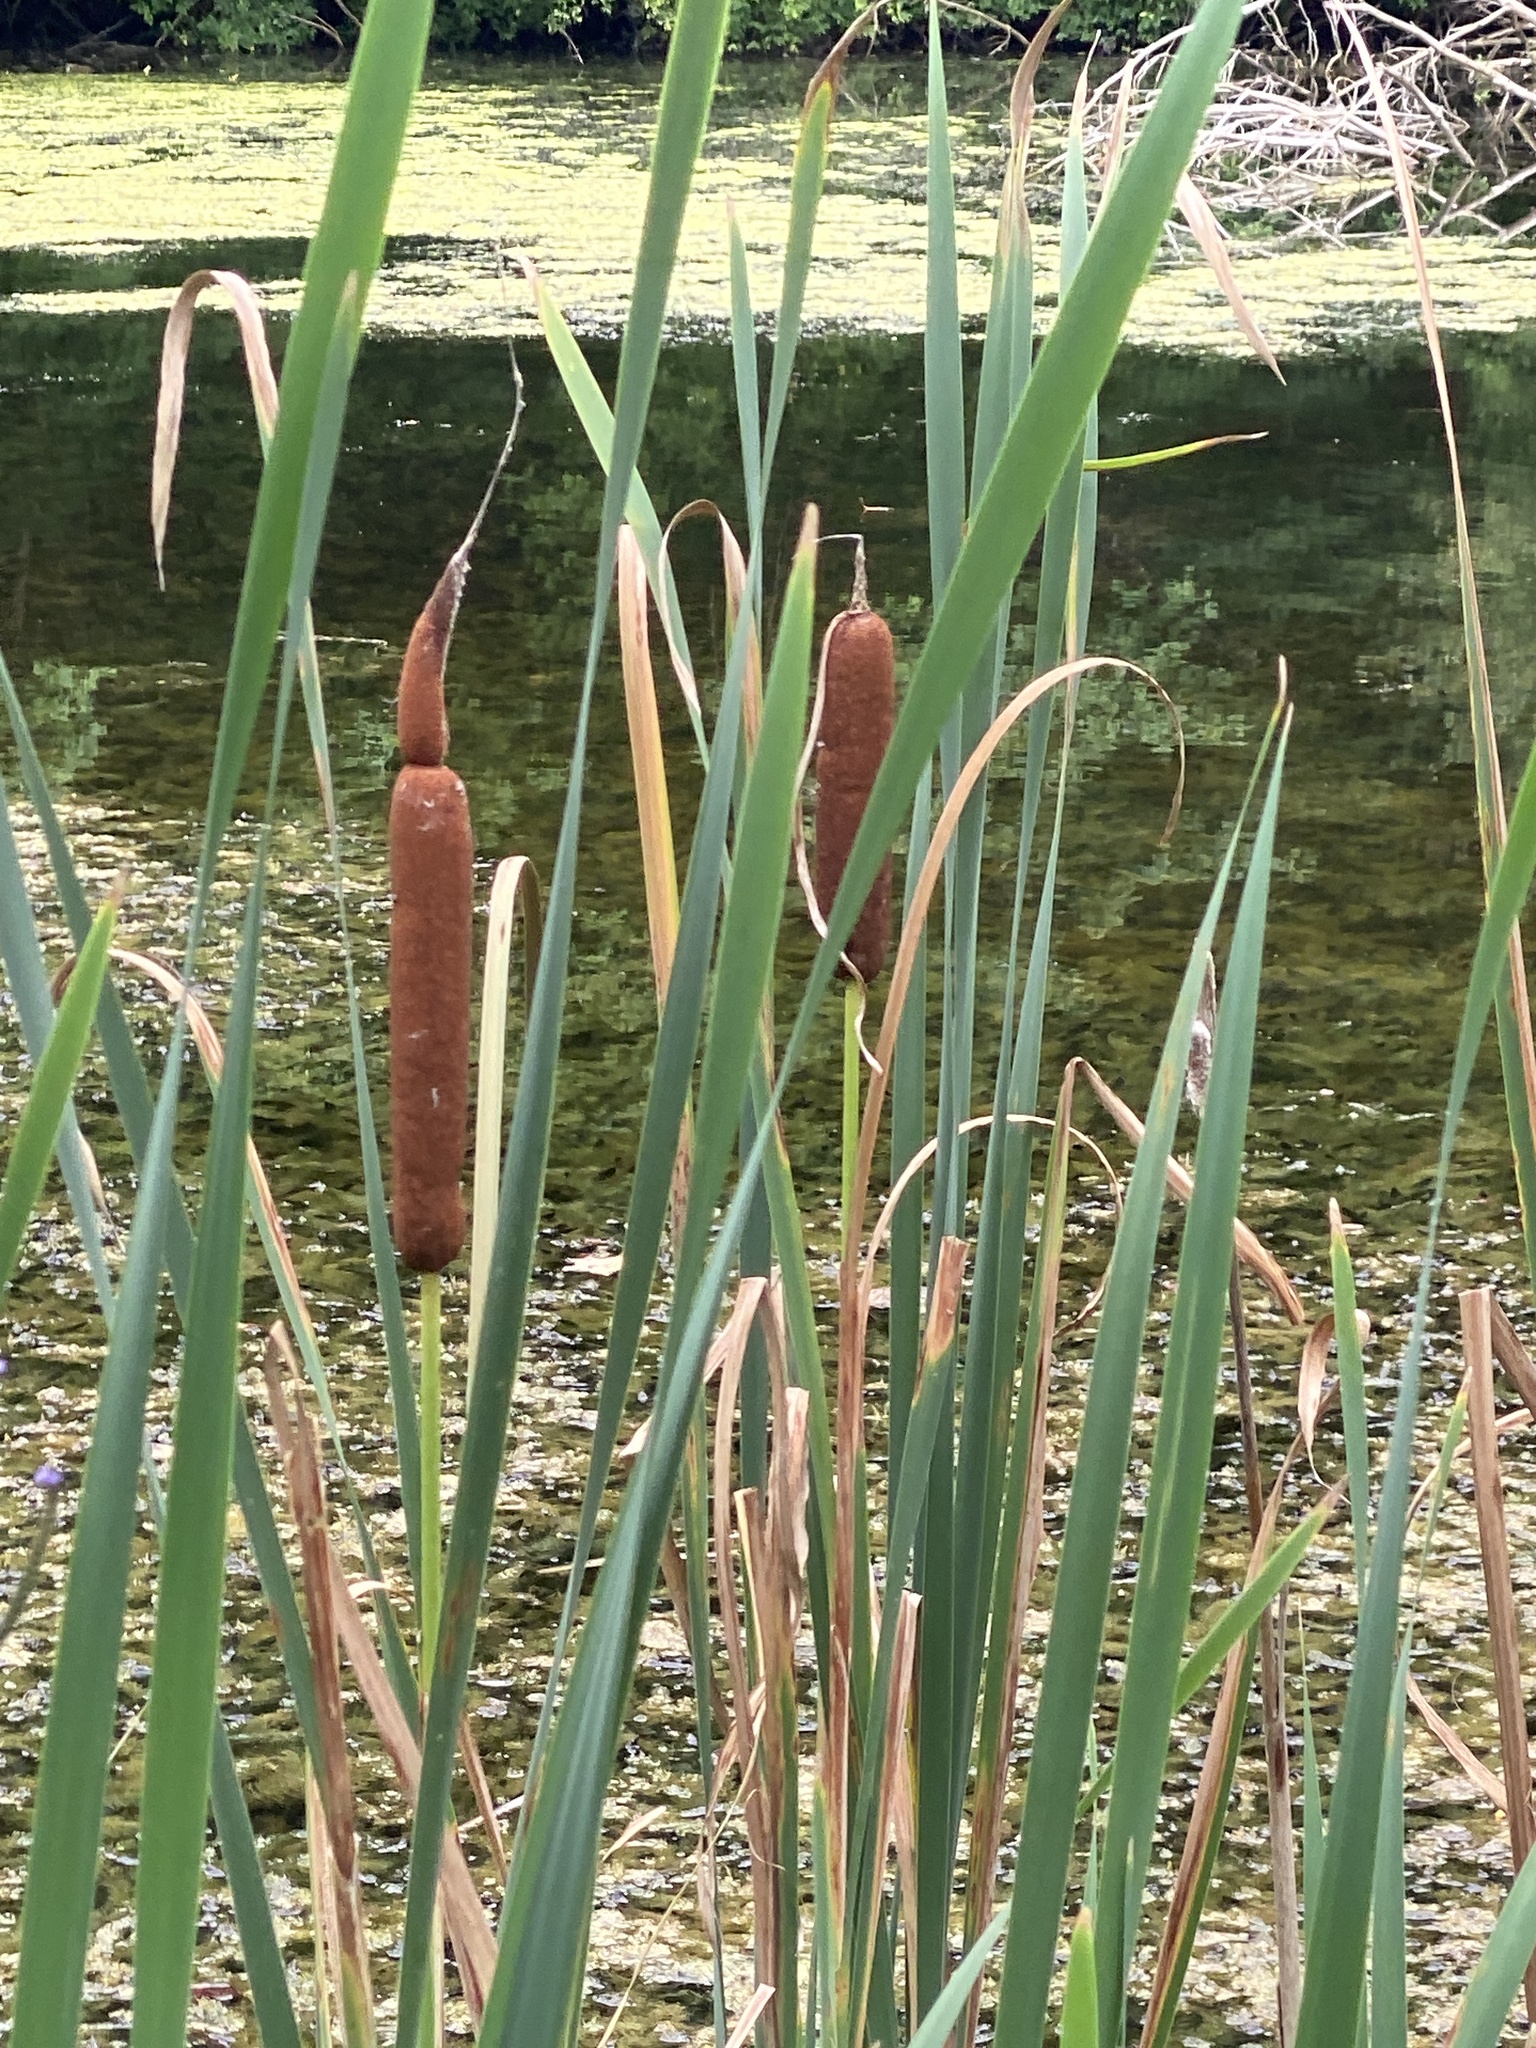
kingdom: Plantae
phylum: Tracheophyta
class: Liliopsida
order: Poales
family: Typhaceae
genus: Typha
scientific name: Typha latifolia
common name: Broadleaf cattail
